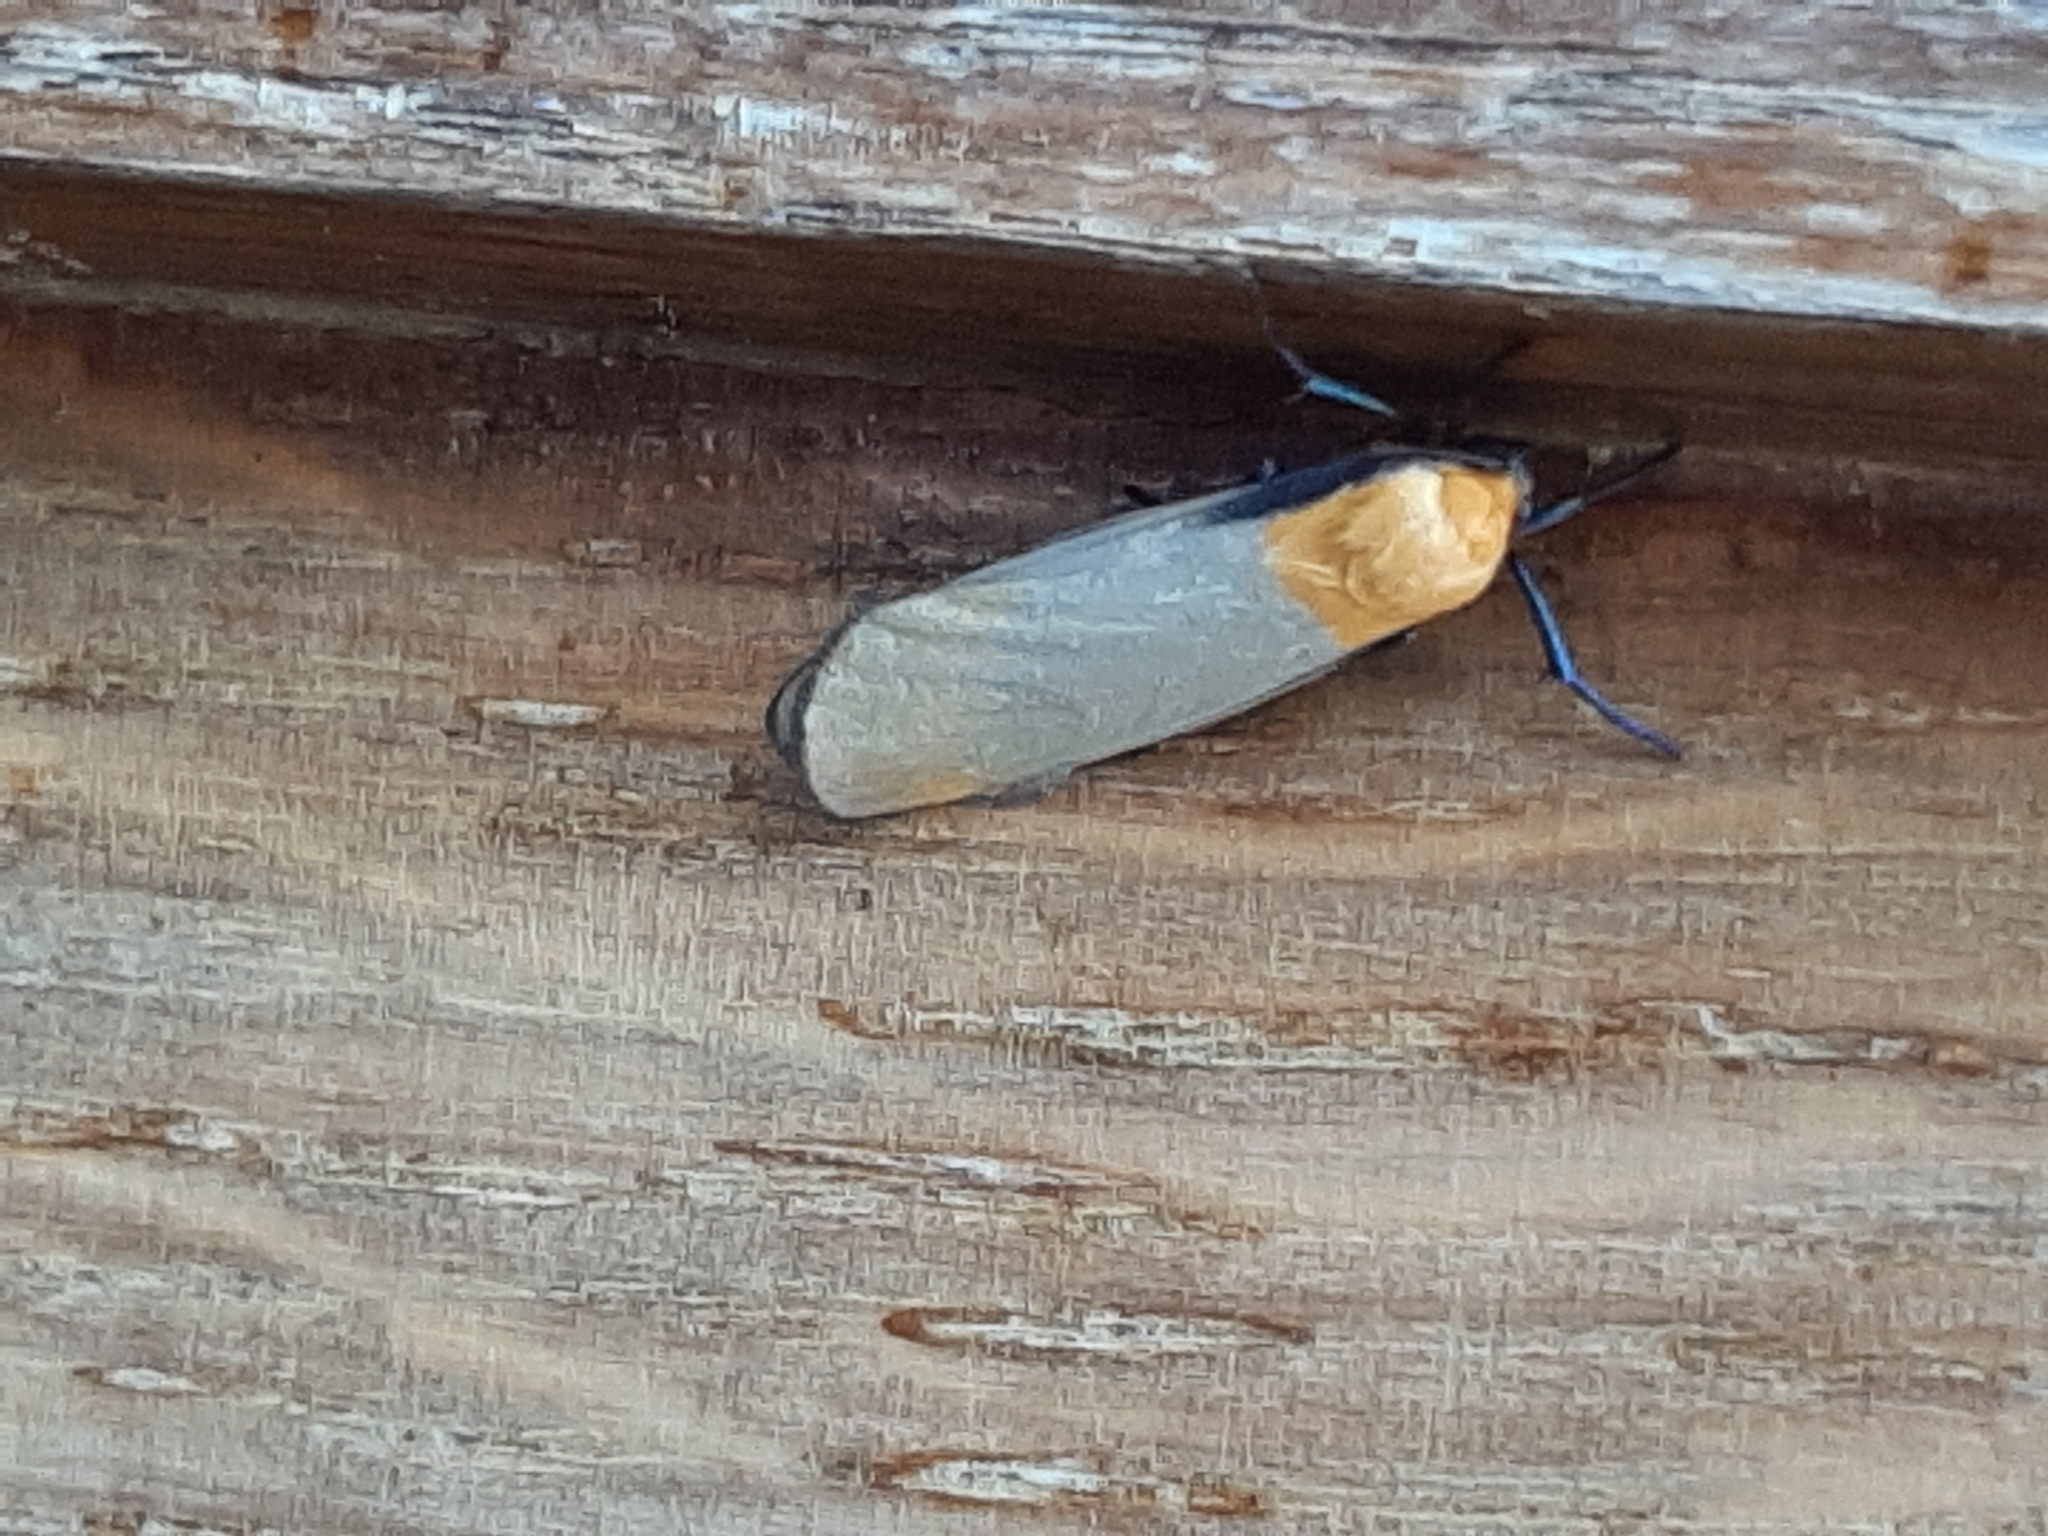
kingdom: Animalia
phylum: Arthropoda
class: Insecta
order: Lepidoptera
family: Erebidae
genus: Lithosia
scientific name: Lithosia quadra
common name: Four-spotted footman
